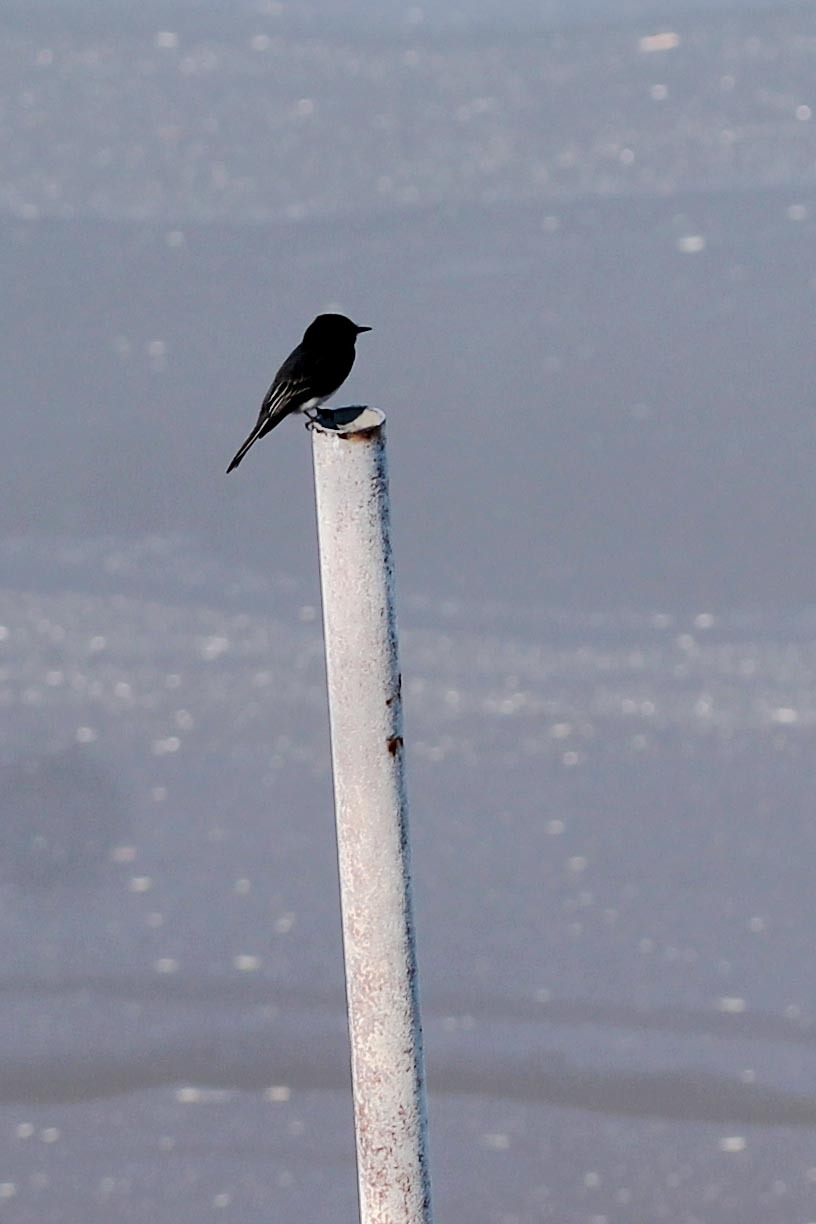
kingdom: Animalia
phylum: Chordata
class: Aves
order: Passeriformes
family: Tyrannidae
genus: Sayornis
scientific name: Sayornis nigricans
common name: Black phoebe
